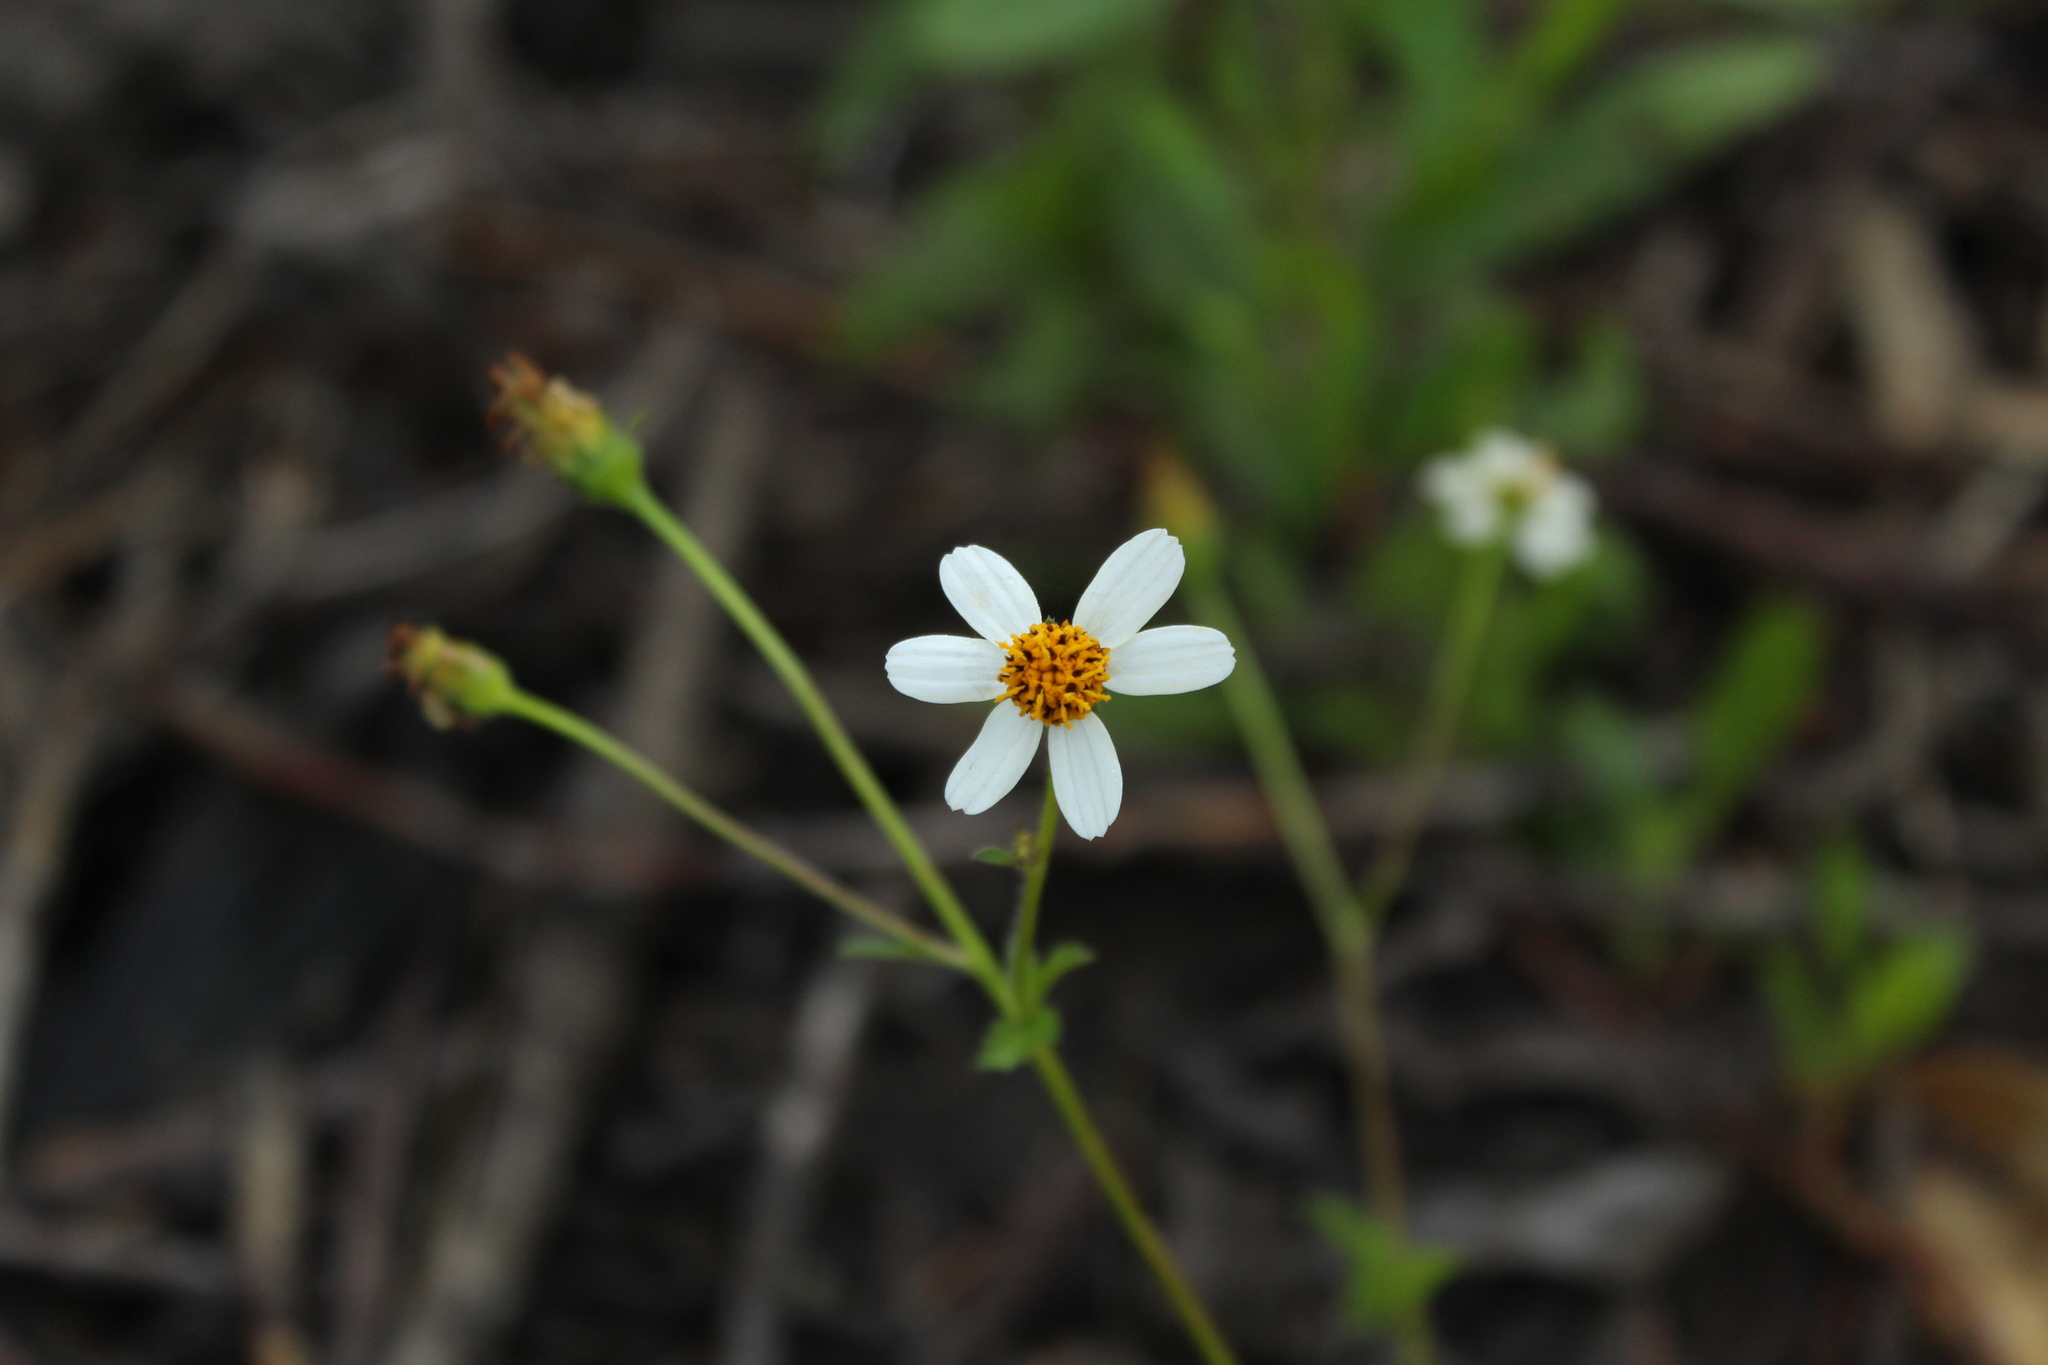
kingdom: Plantae
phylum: Tracheophyta
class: Magnoliopsida
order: Asterales
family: Asteraceae
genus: Bidens
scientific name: Bidens alba
